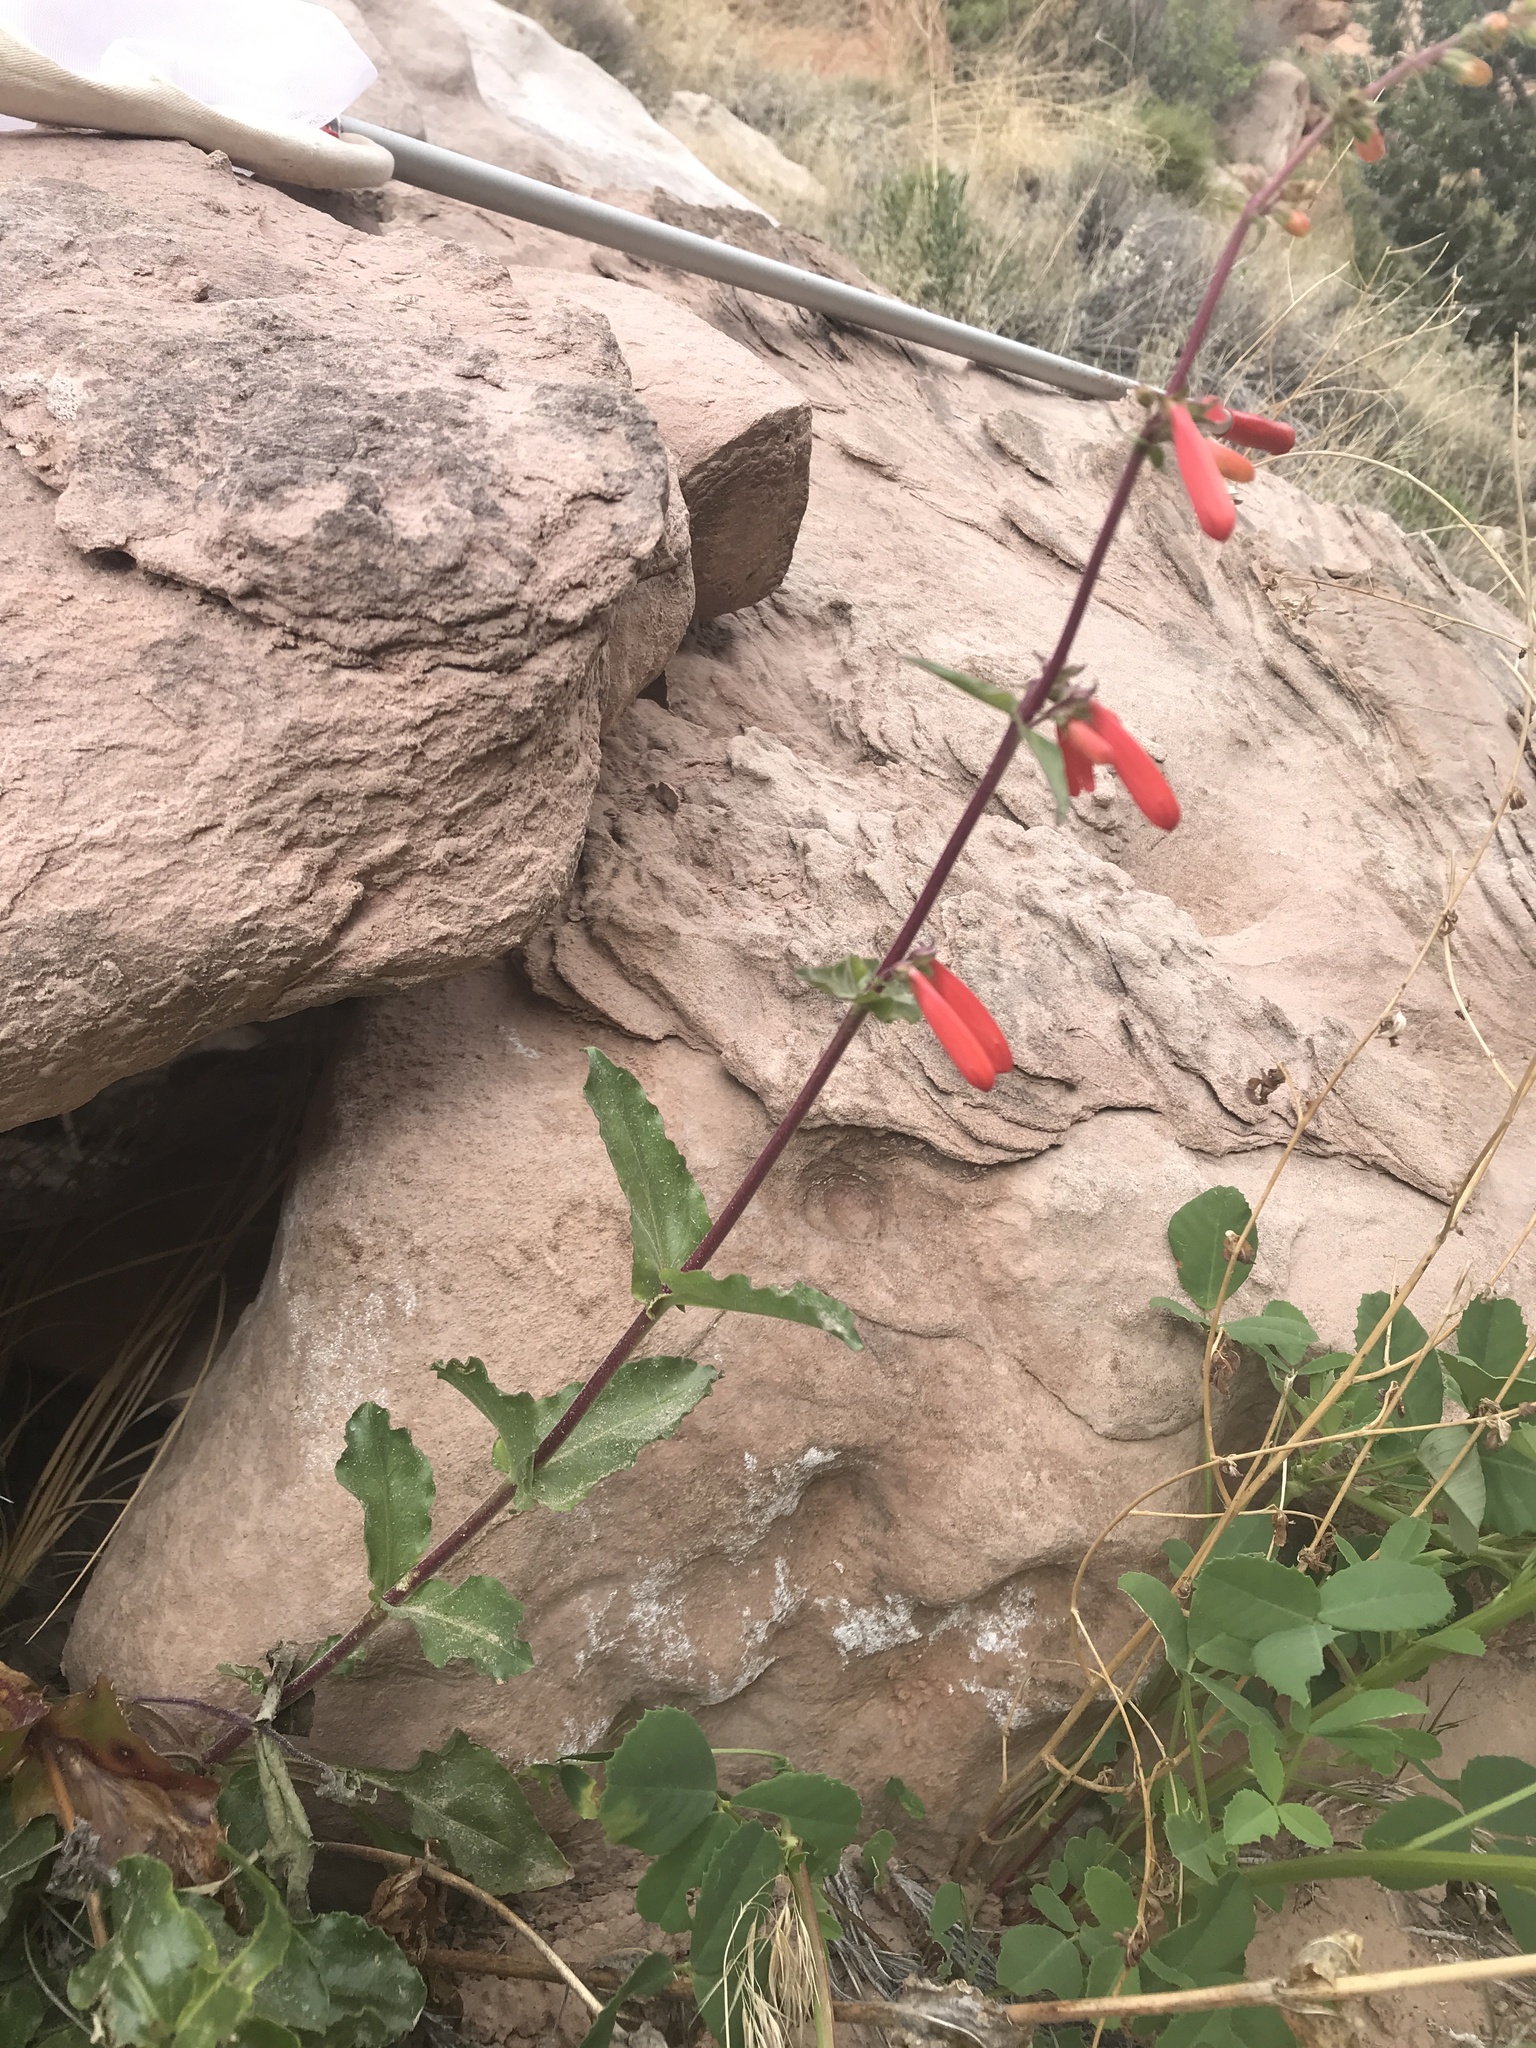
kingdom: Plantae
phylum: Tracheophyta
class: Magnoliopsida
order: Lamiales
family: Plantaginaceae
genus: Penstemon
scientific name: Penstemon eatonii
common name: Eaton's penstemon
